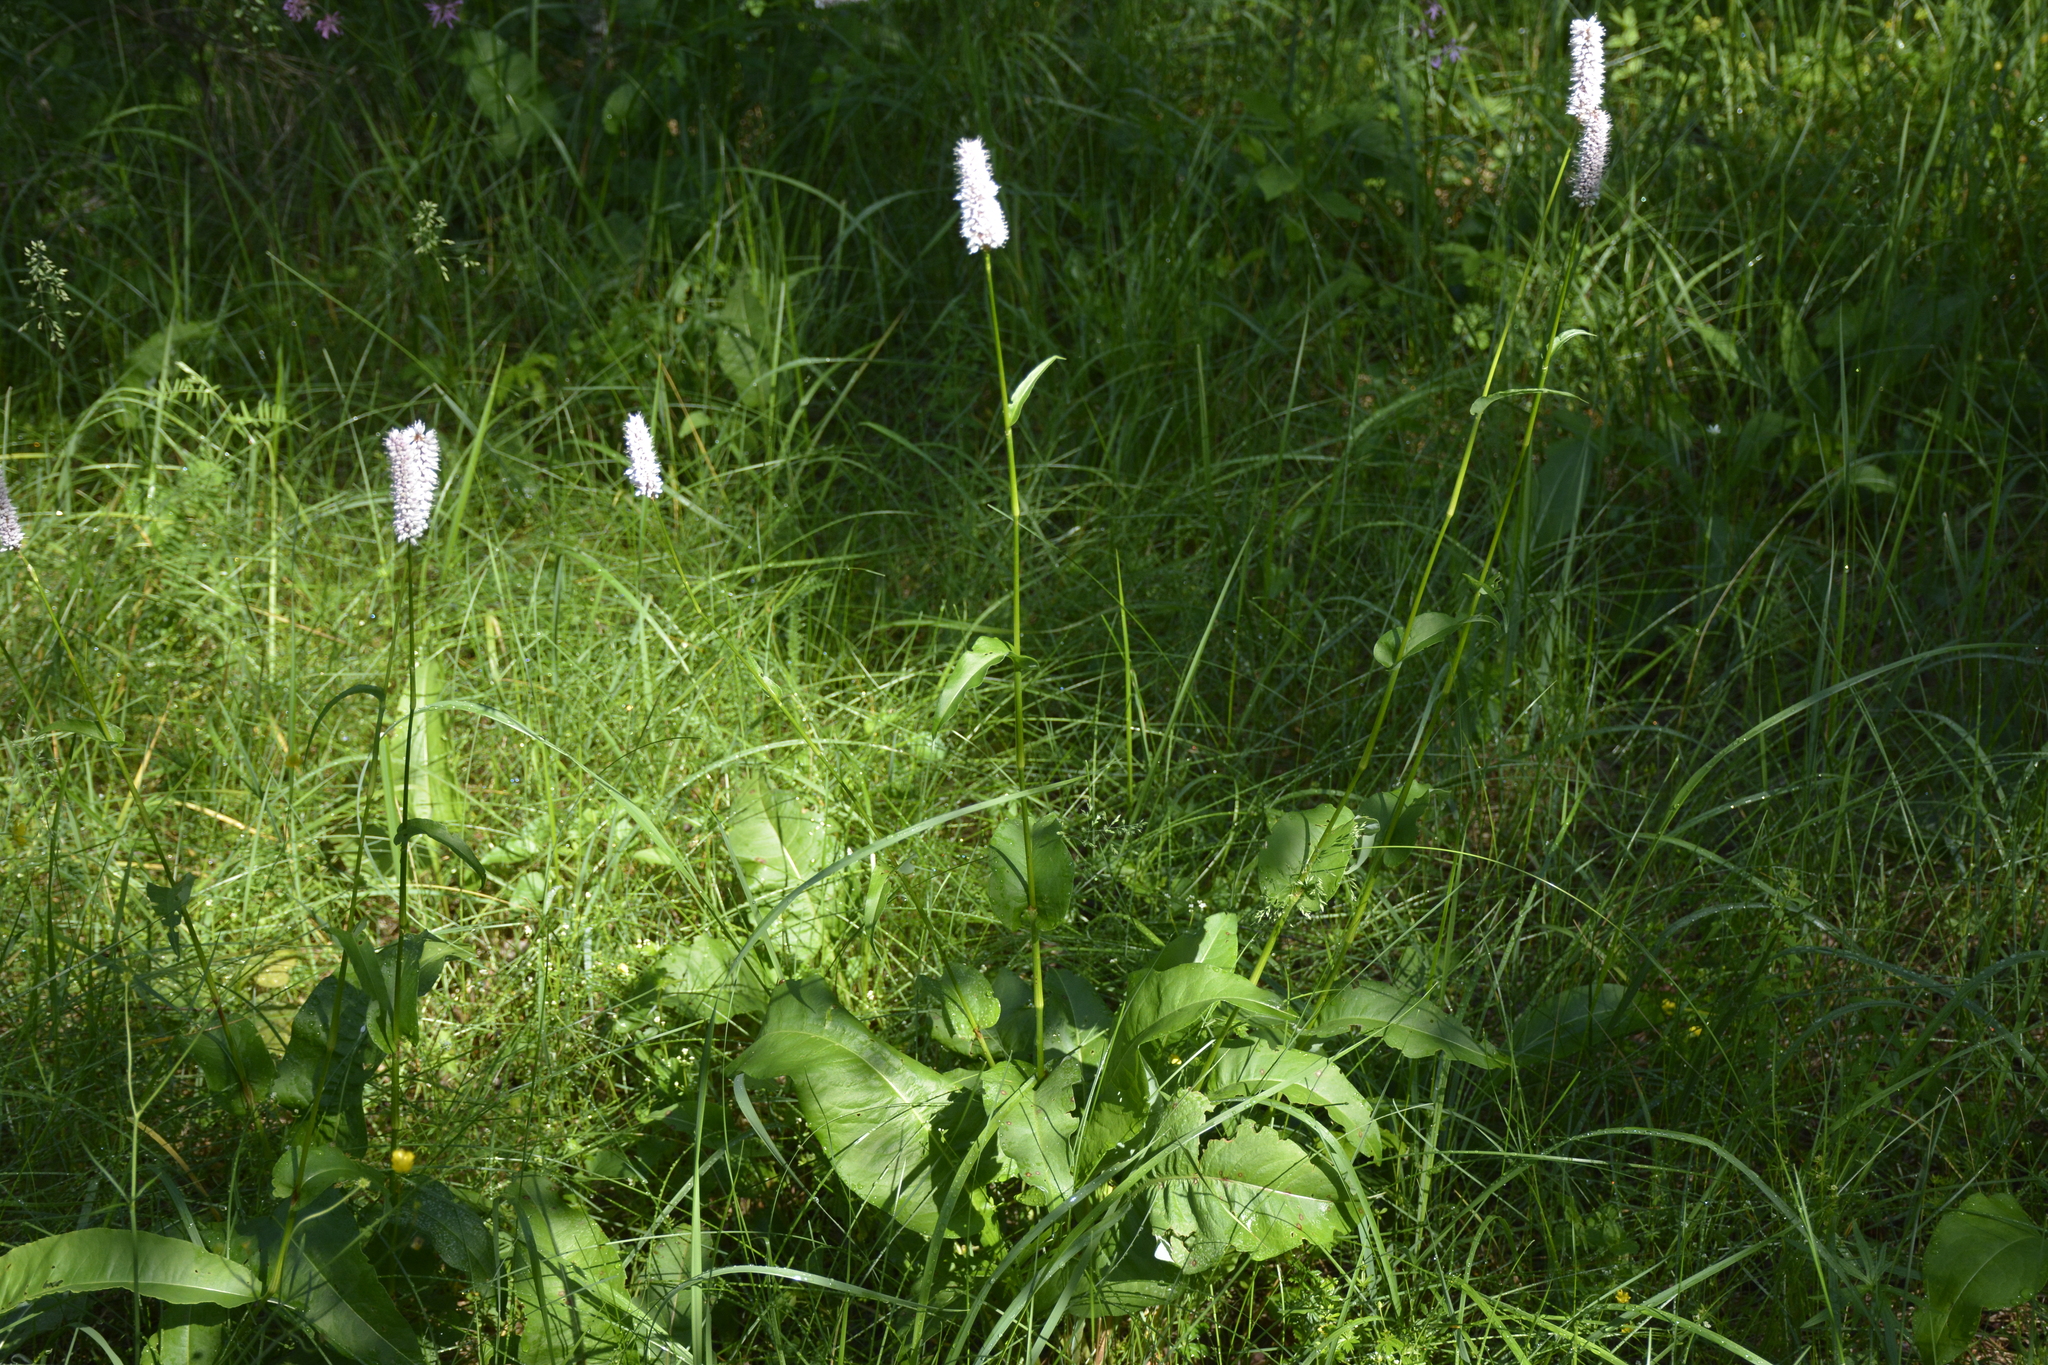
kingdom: Plantae
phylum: Tracheophyta
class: Magnoliopsida
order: Caryophyllales
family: Polygonaceae
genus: Bistorta
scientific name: Bistorta officinalis
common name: Common bistort
